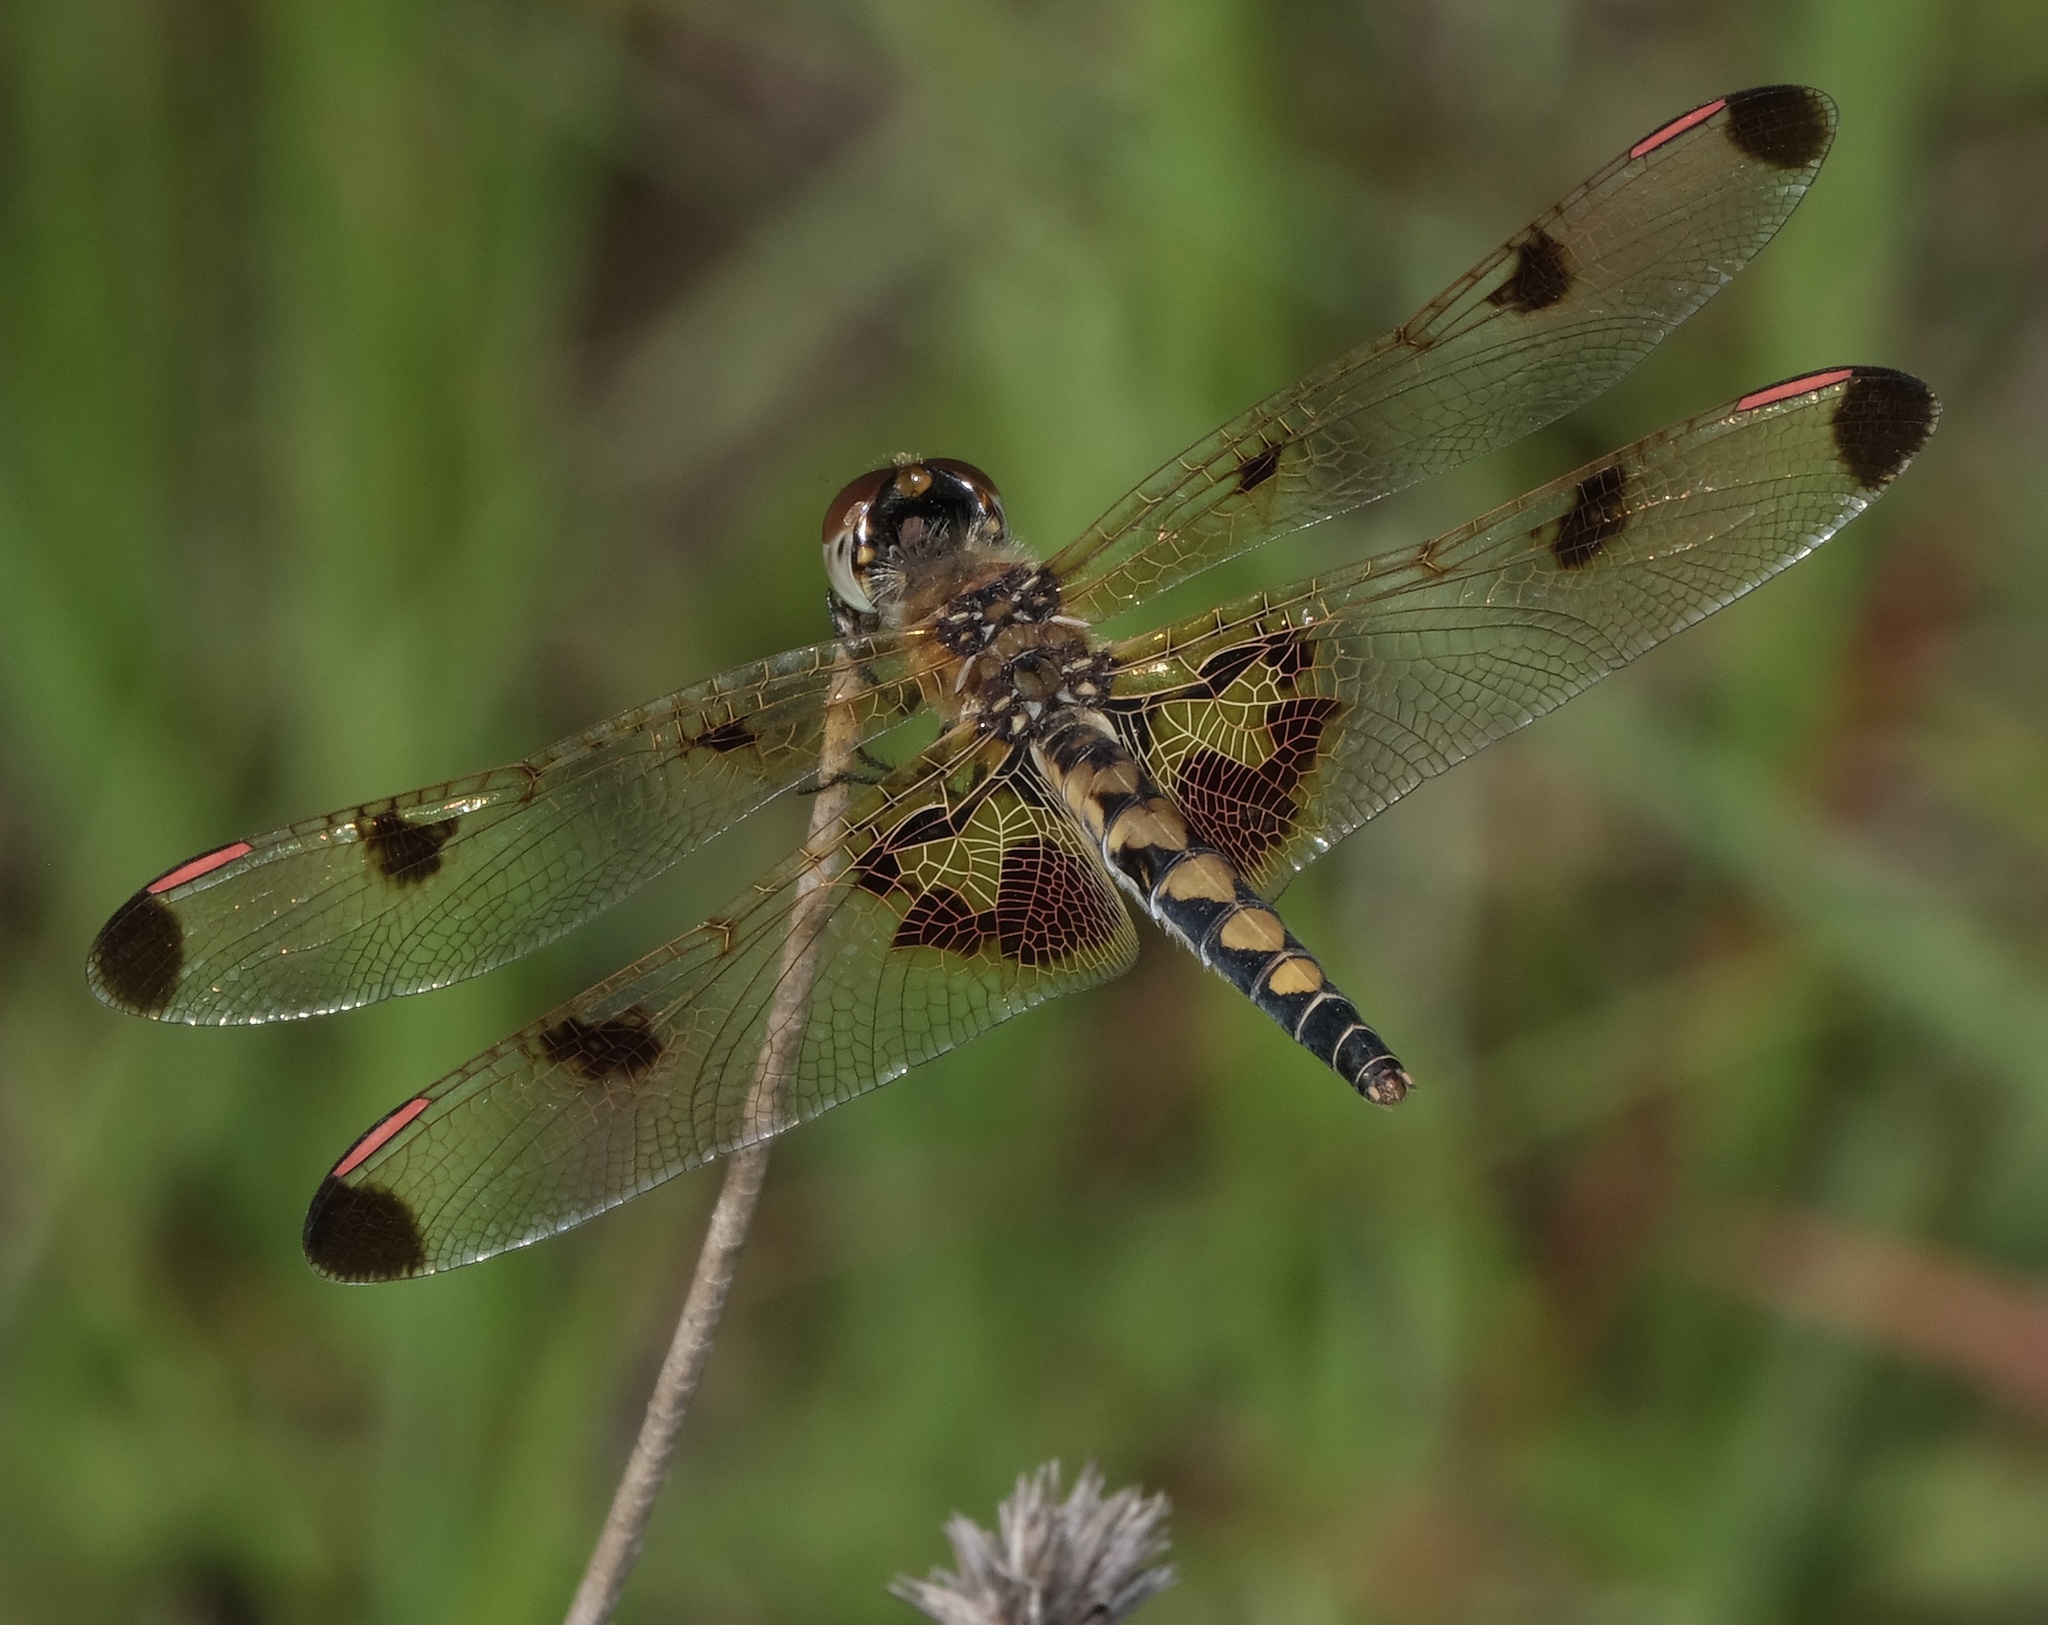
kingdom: Animalia
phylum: Arthropoda
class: Insecta
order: Odonata
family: Libellulidae
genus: Celithemis
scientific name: Celithemis elisa
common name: Calico pennant
